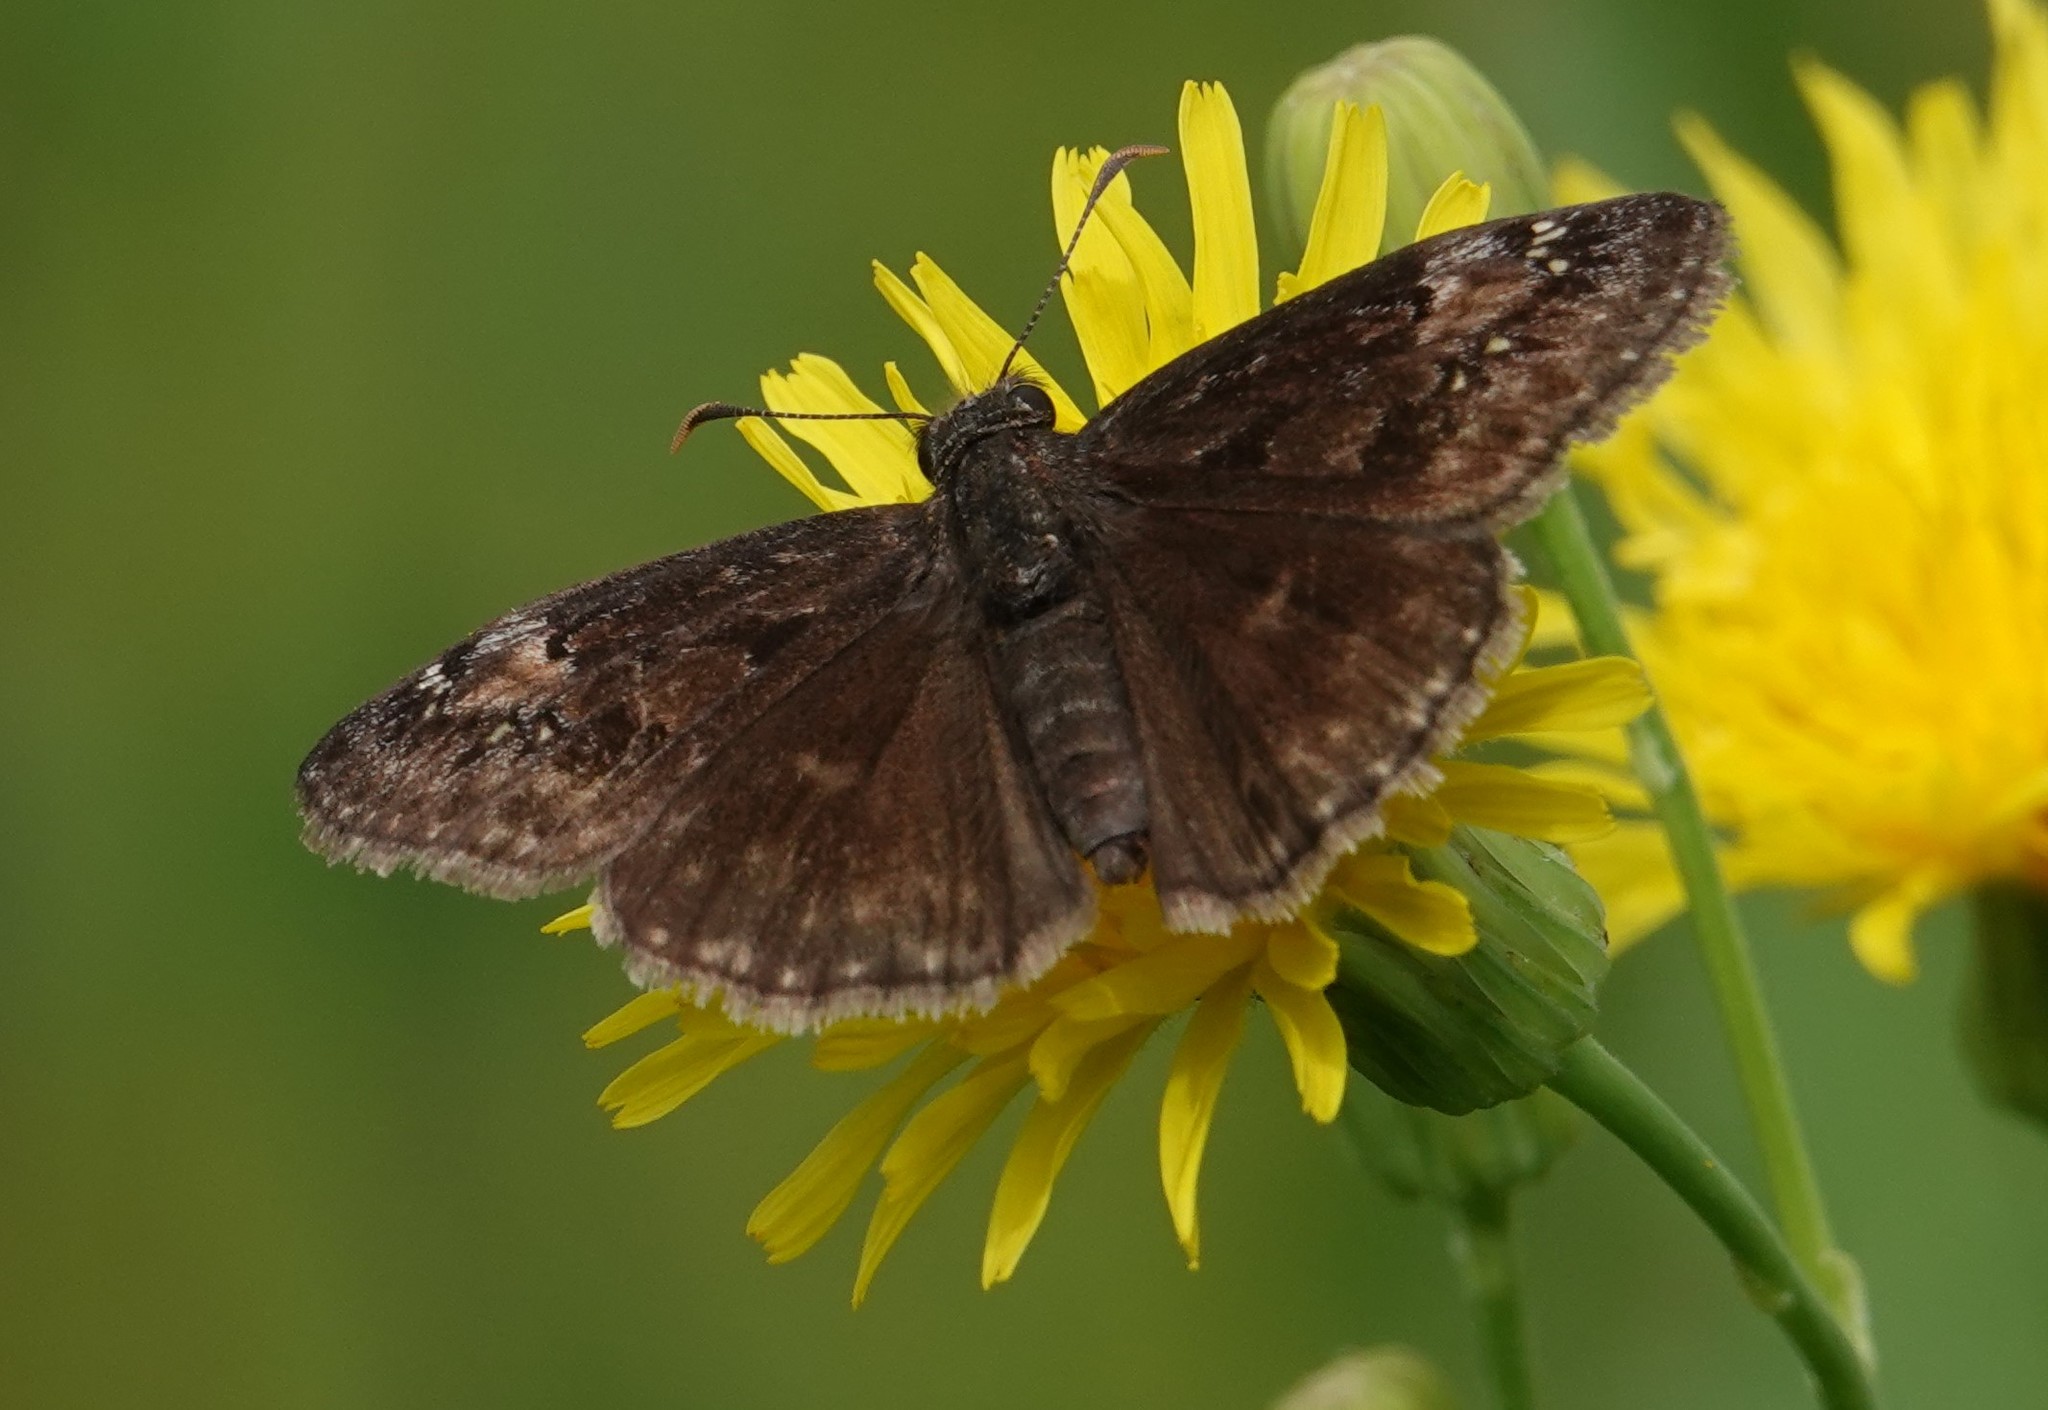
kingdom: Animalia
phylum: Arthropoda
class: Insecta
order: Lepidoptera
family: Hesperiidae
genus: Erynnis
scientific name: Erynnis baptisiae
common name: Wild indigo duskywing
